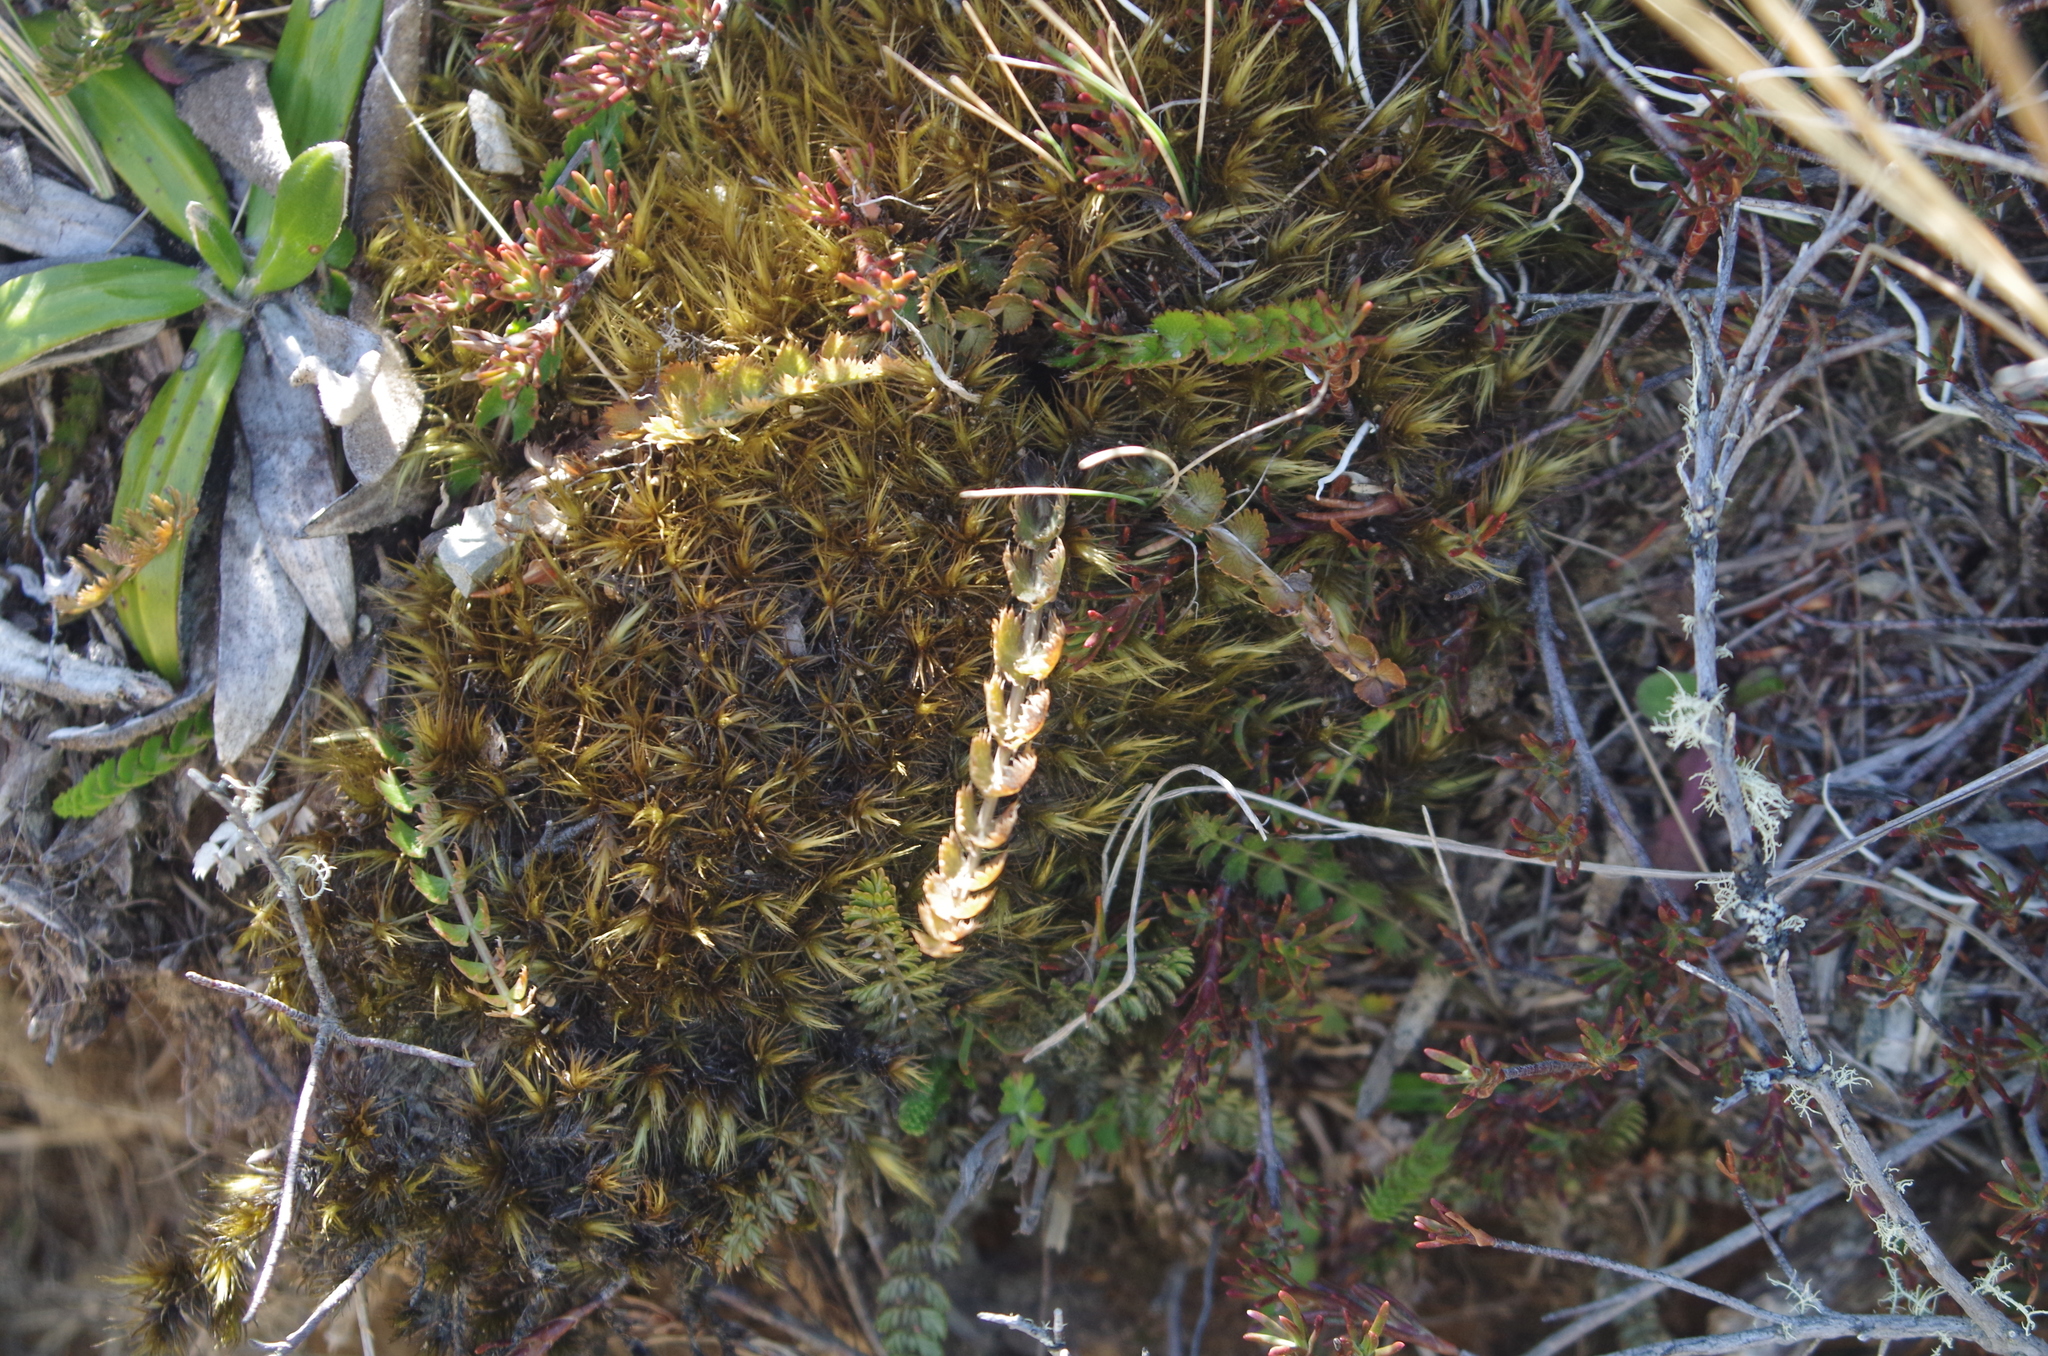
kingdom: Plantae
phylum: Tracheophyta
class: Magnoliopsida
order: Apiales
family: Apiaceae
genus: Anisotome
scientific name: Anisotome aromatica
